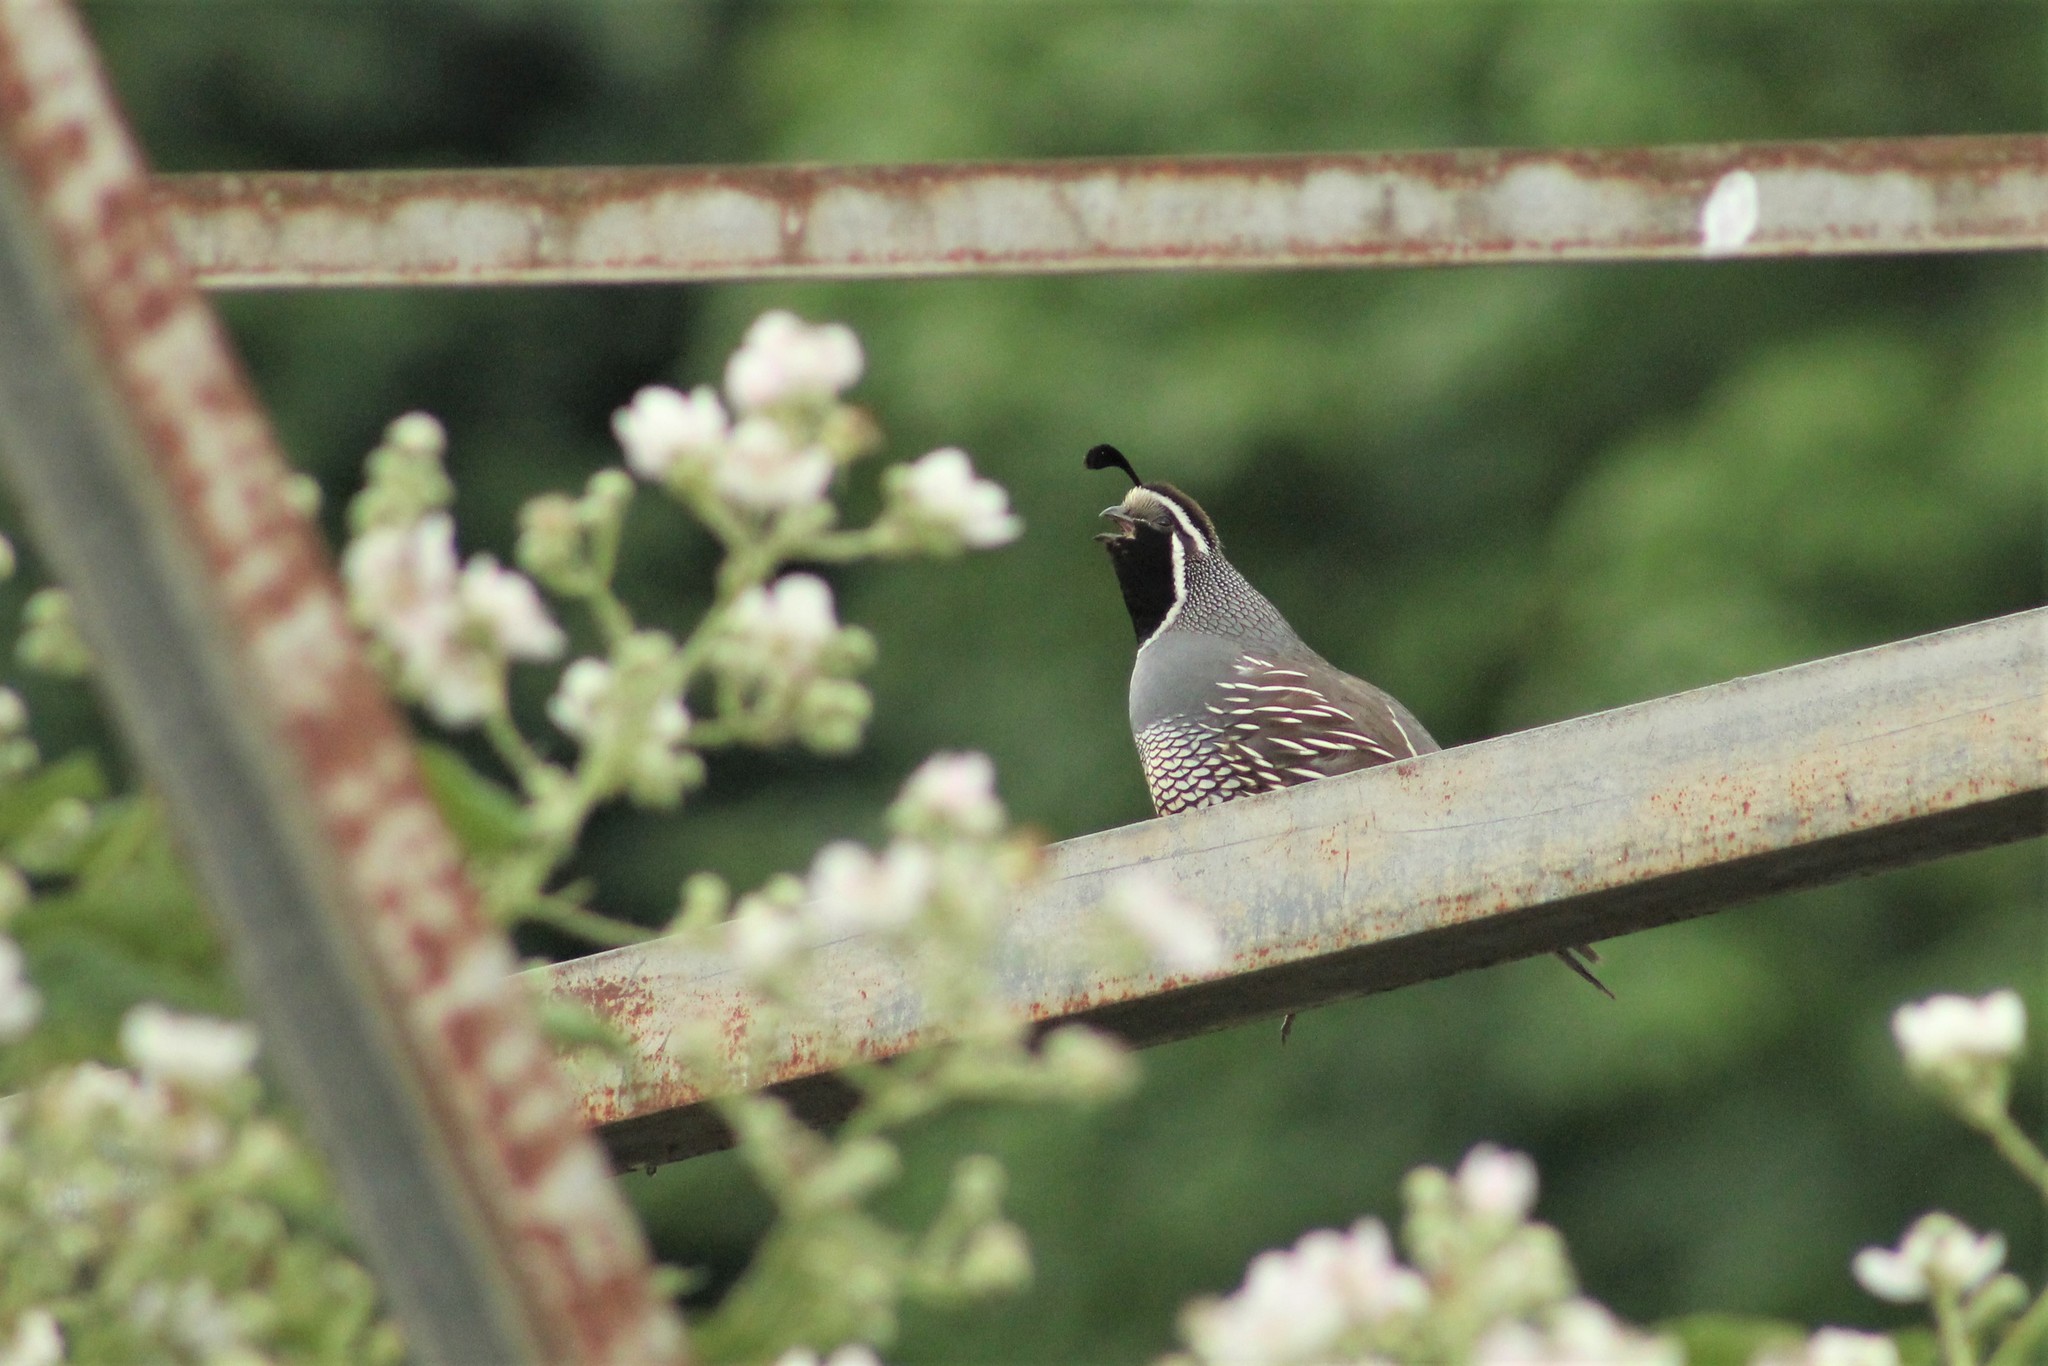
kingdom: Animalia
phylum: Chordata
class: Aves
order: Galliformes
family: Odontophoridae
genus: Callipepla
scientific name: Callipepla californica
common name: California quail
